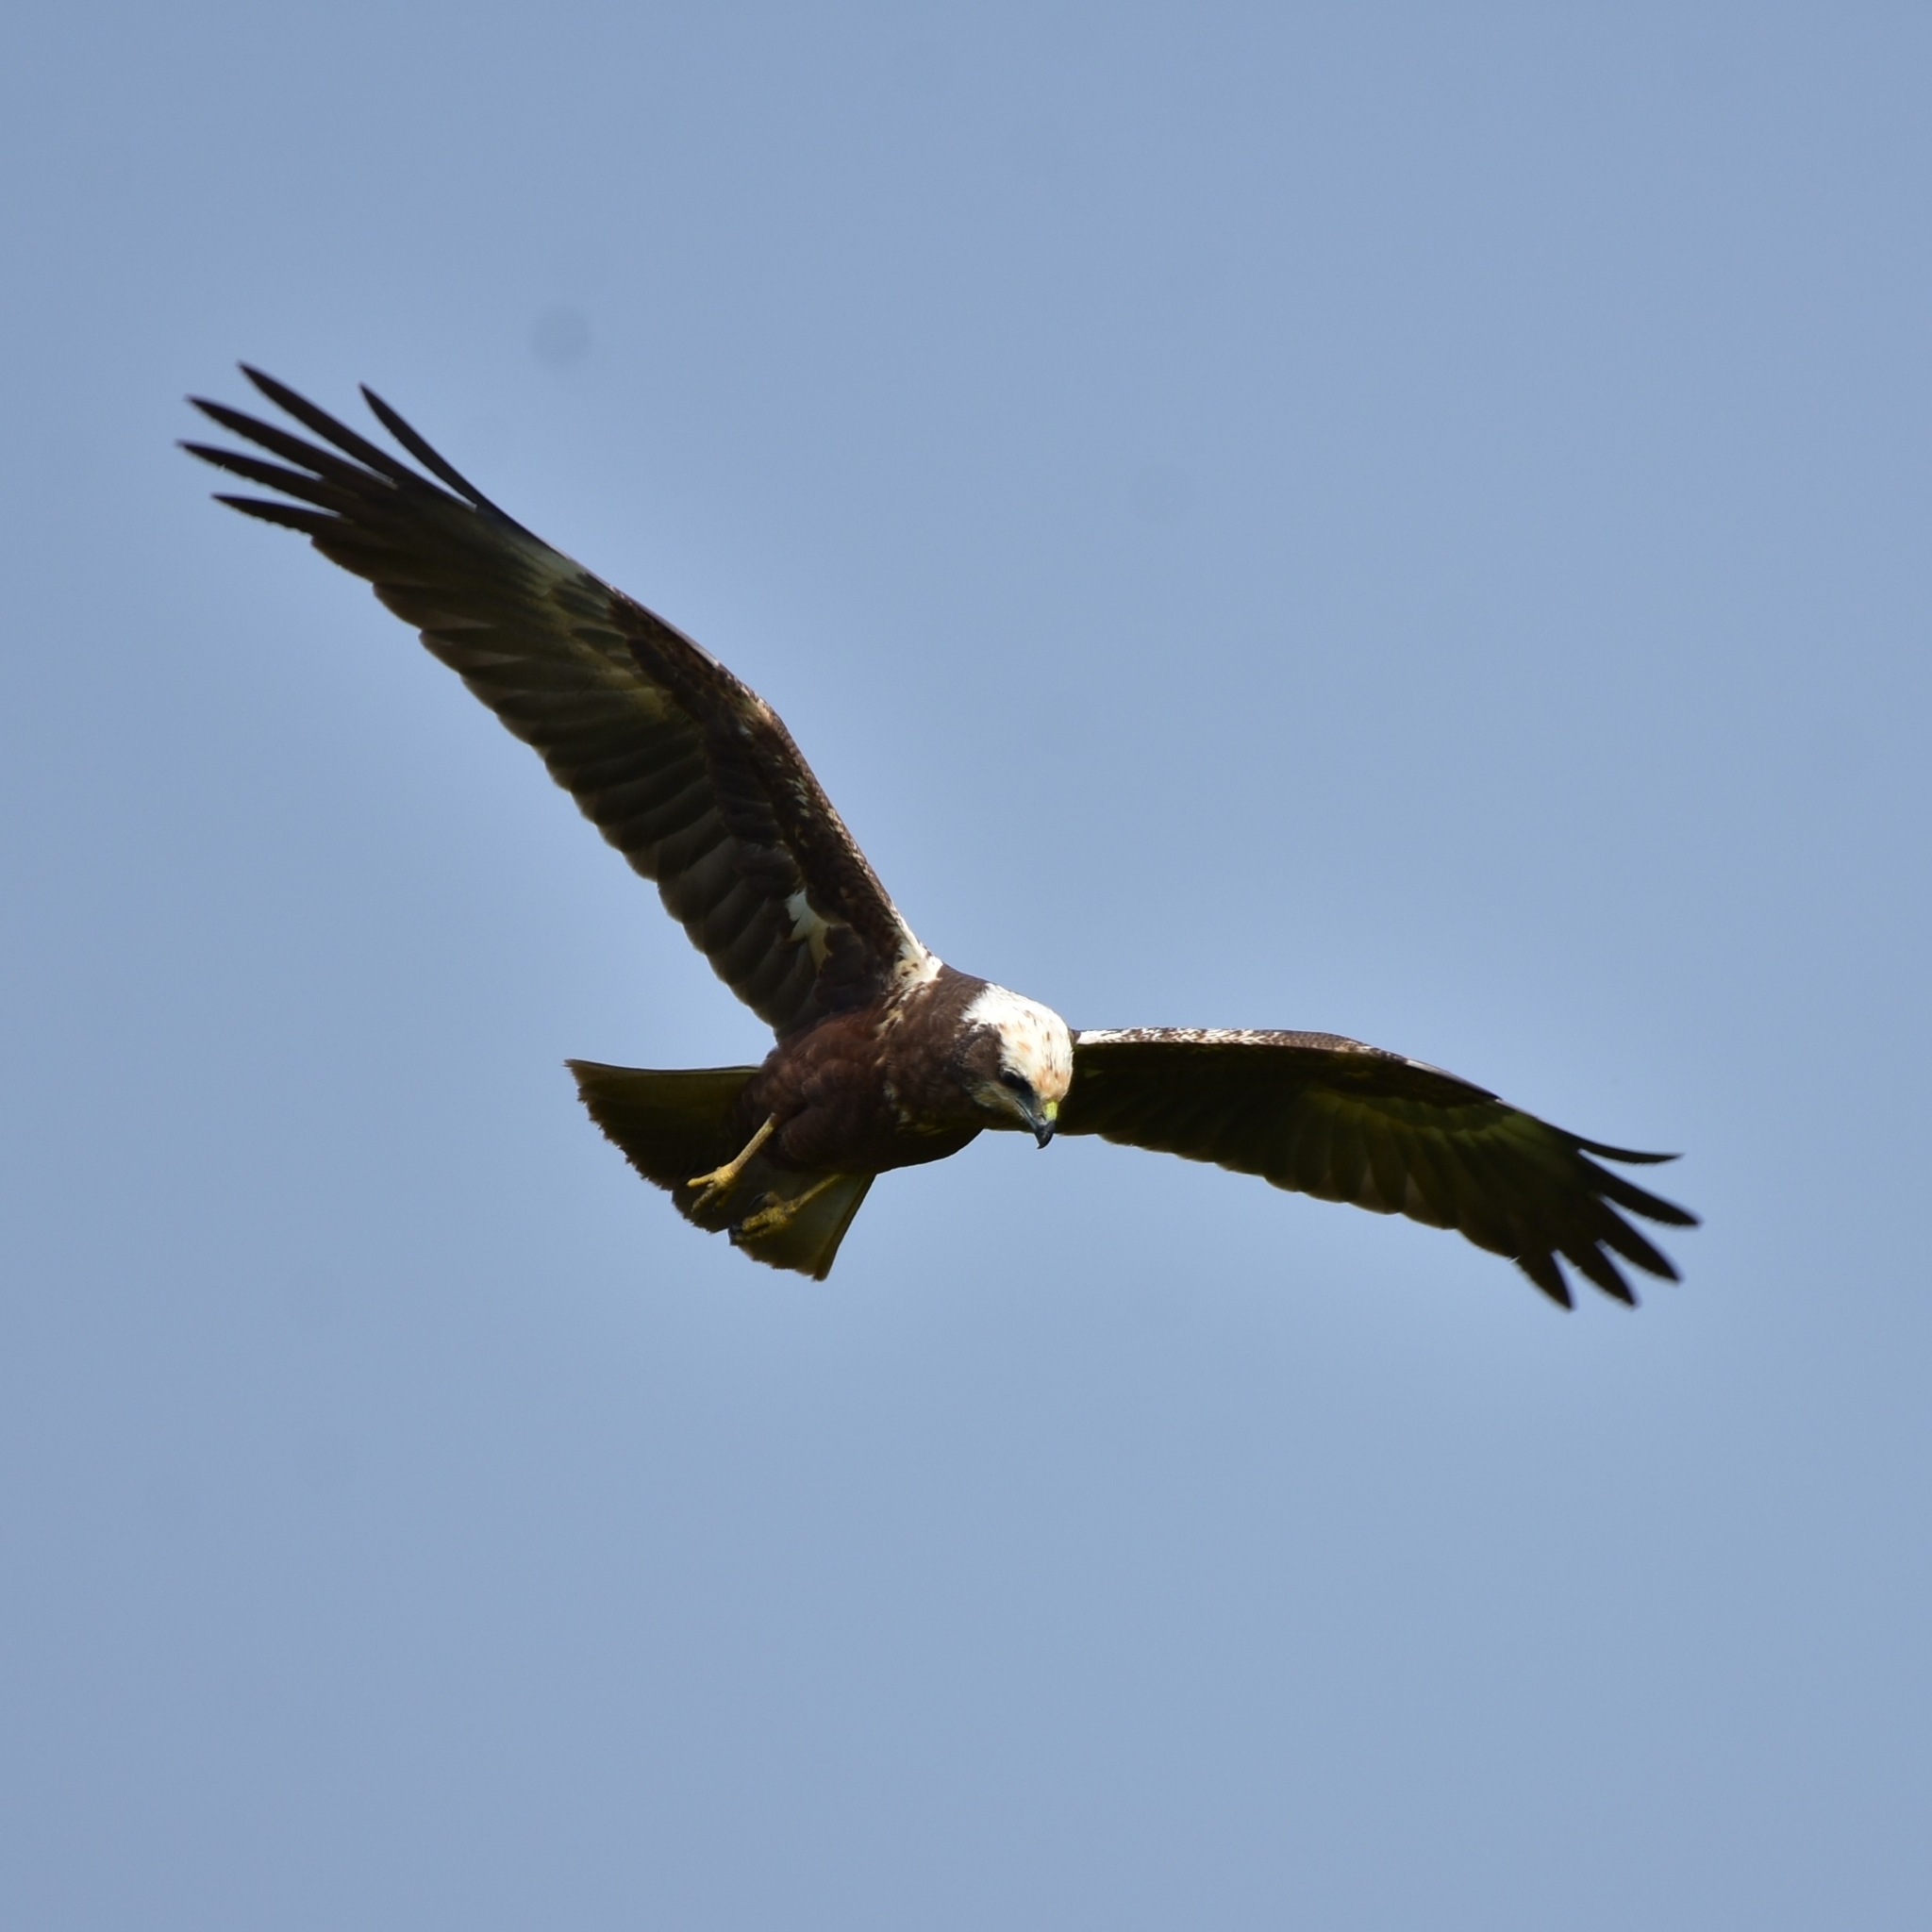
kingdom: Animalia
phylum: Chordata
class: Aves
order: Accipitriformes
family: Accipitridae
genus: Circus
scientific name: Circus aeruginosus
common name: Western marsh harrier
